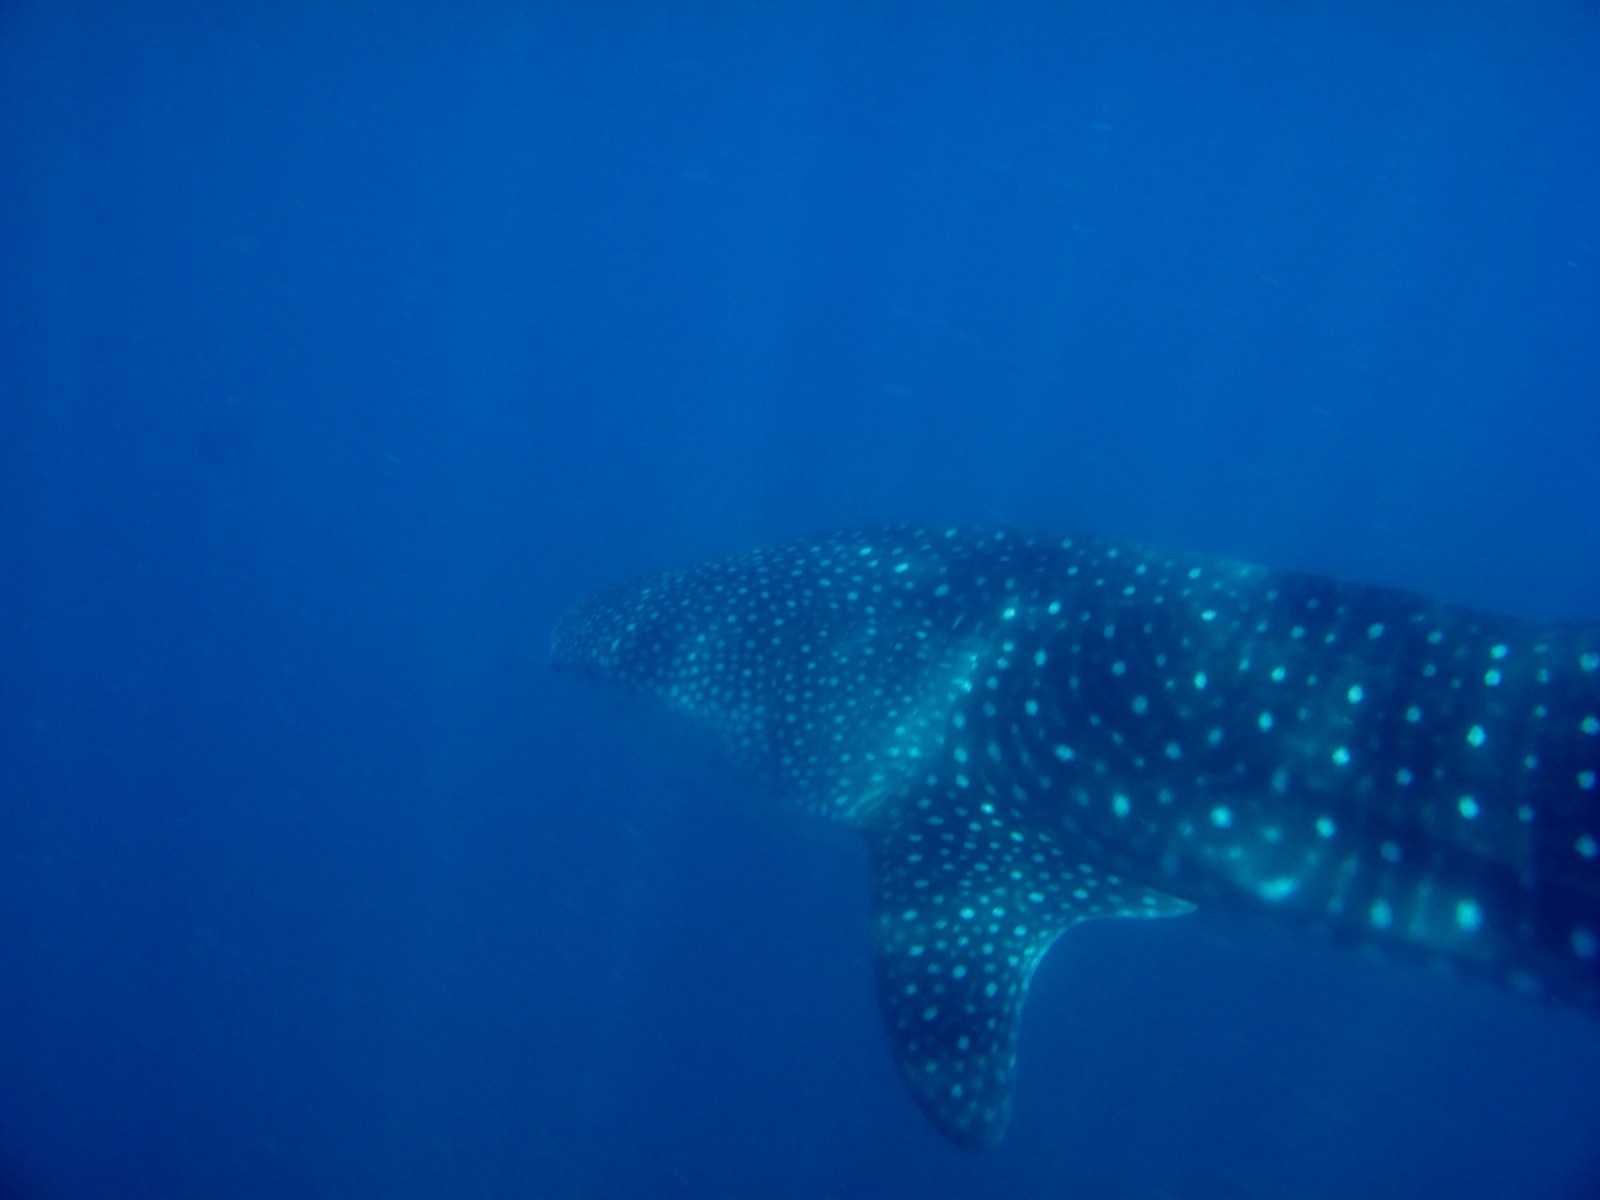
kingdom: Animalia
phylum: Chordata
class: Elasmobranchii
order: Orectolobiformes
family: Rhincodontidae
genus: Rhincodon
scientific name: Rhincodon typus
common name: Whale shark
